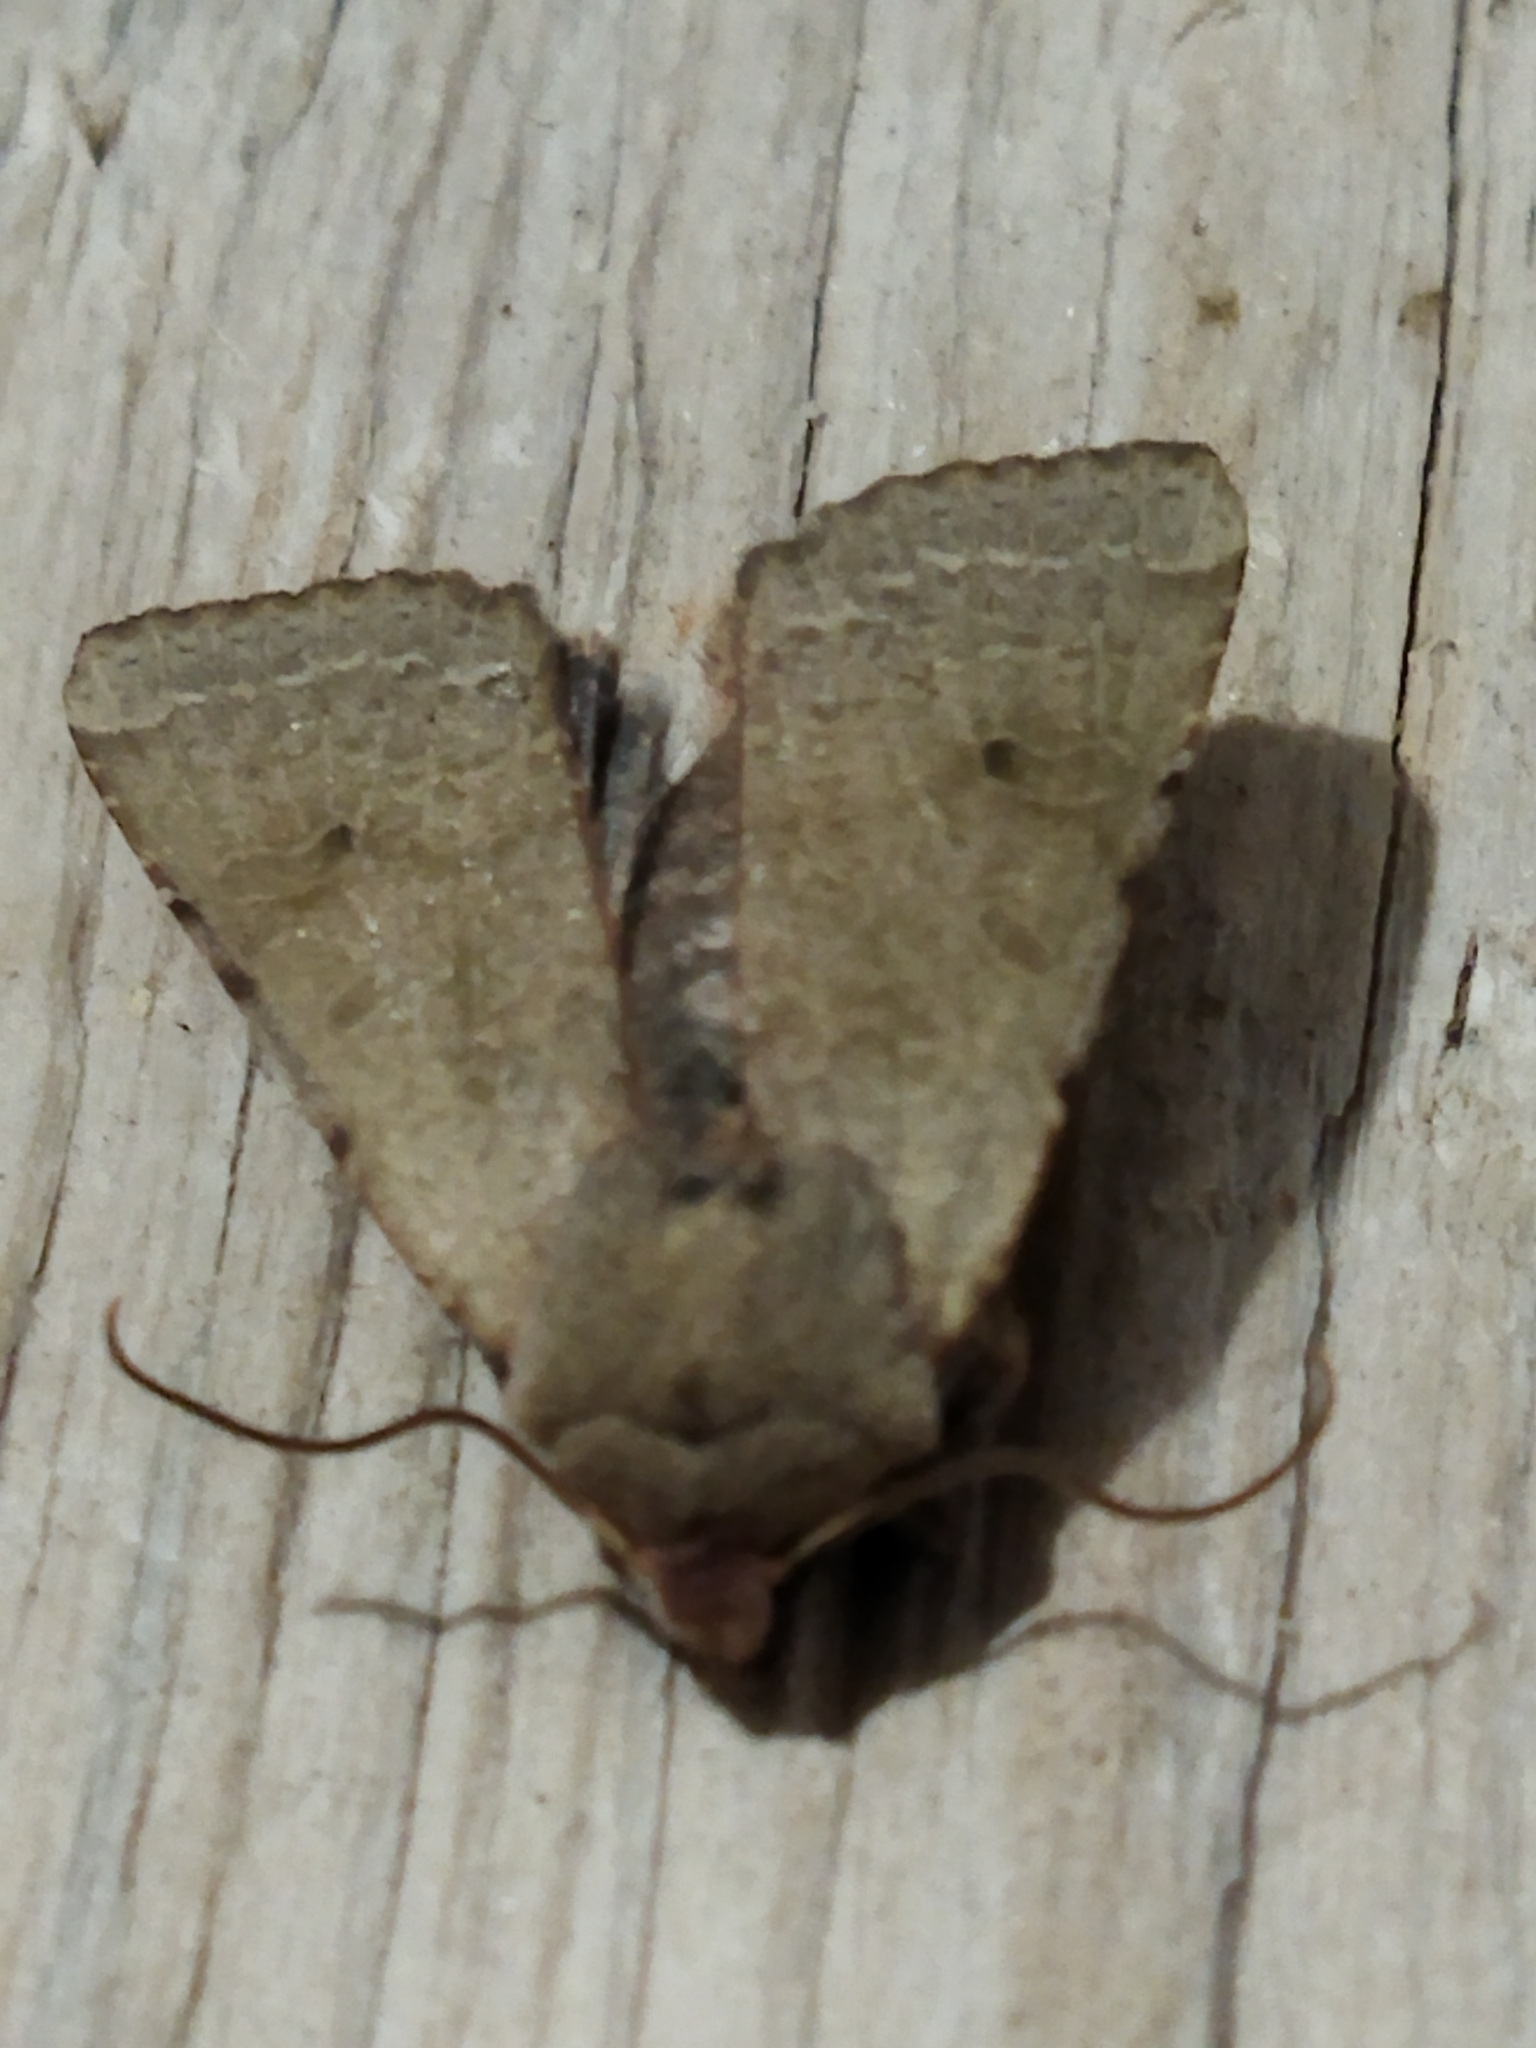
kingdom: Animalia
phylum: Arthropoda
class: Insecta
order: Lepidoptera
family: Noctuidae
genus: Agrochola
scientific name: Agrochola lychnidis
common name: Beaded chestnut
